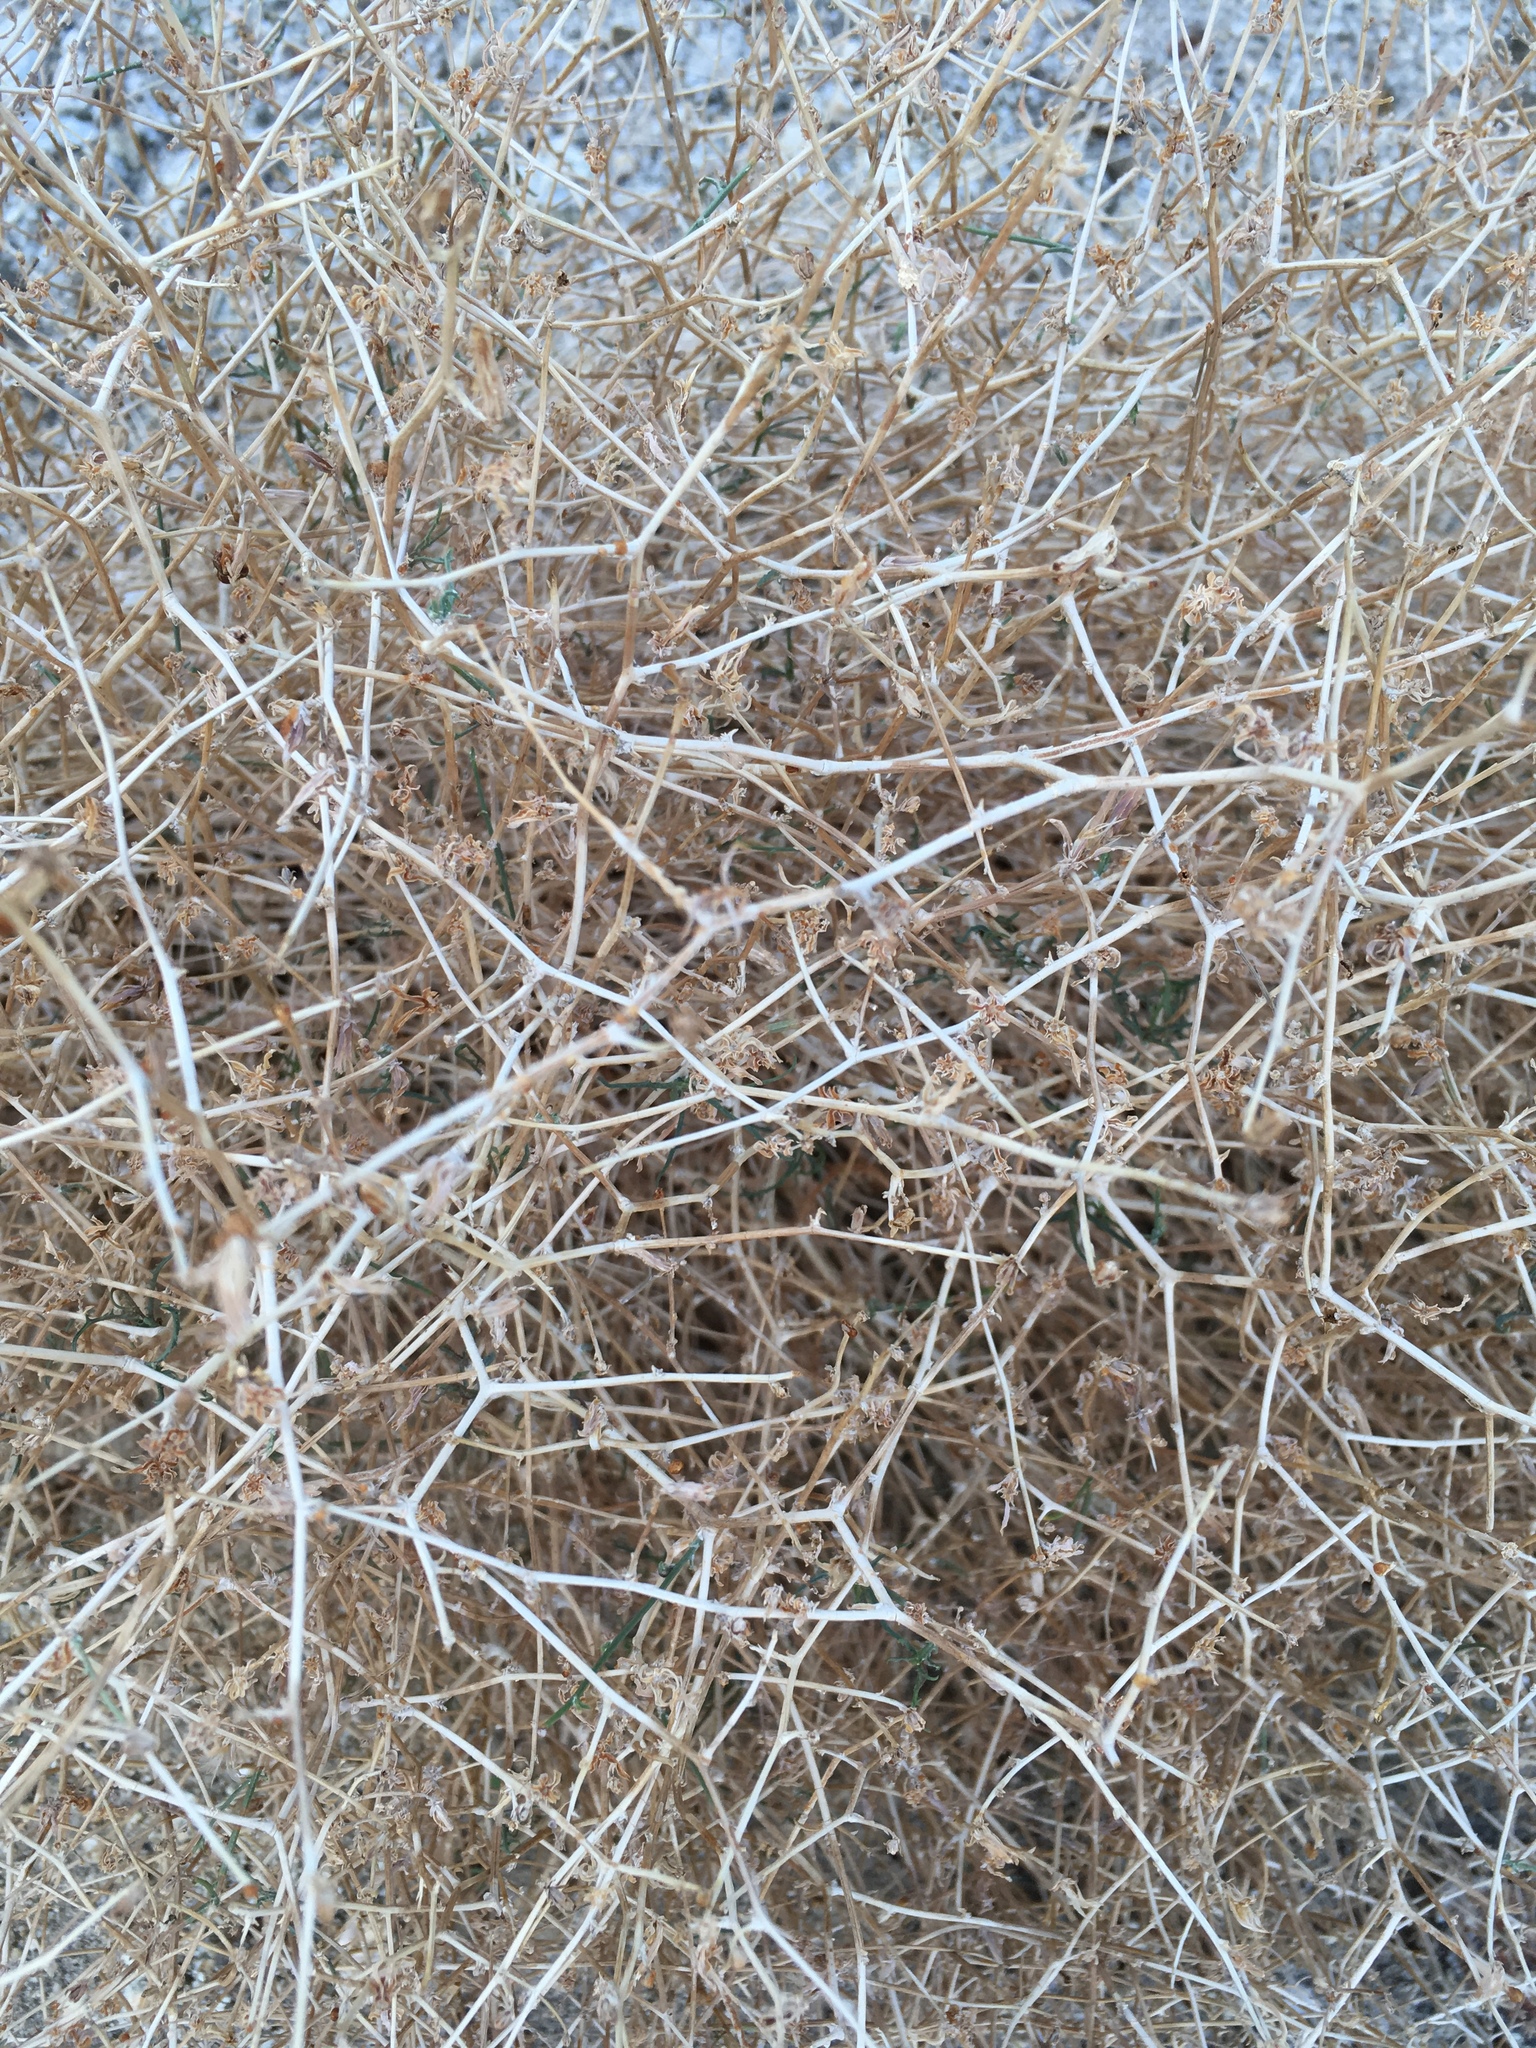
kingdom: Plantae
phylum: Tracheophyta
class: Magnoliopsida
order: Asterales
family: Asteraceae
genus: Stephanomeria
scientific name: Stephanomeria pauciflora
